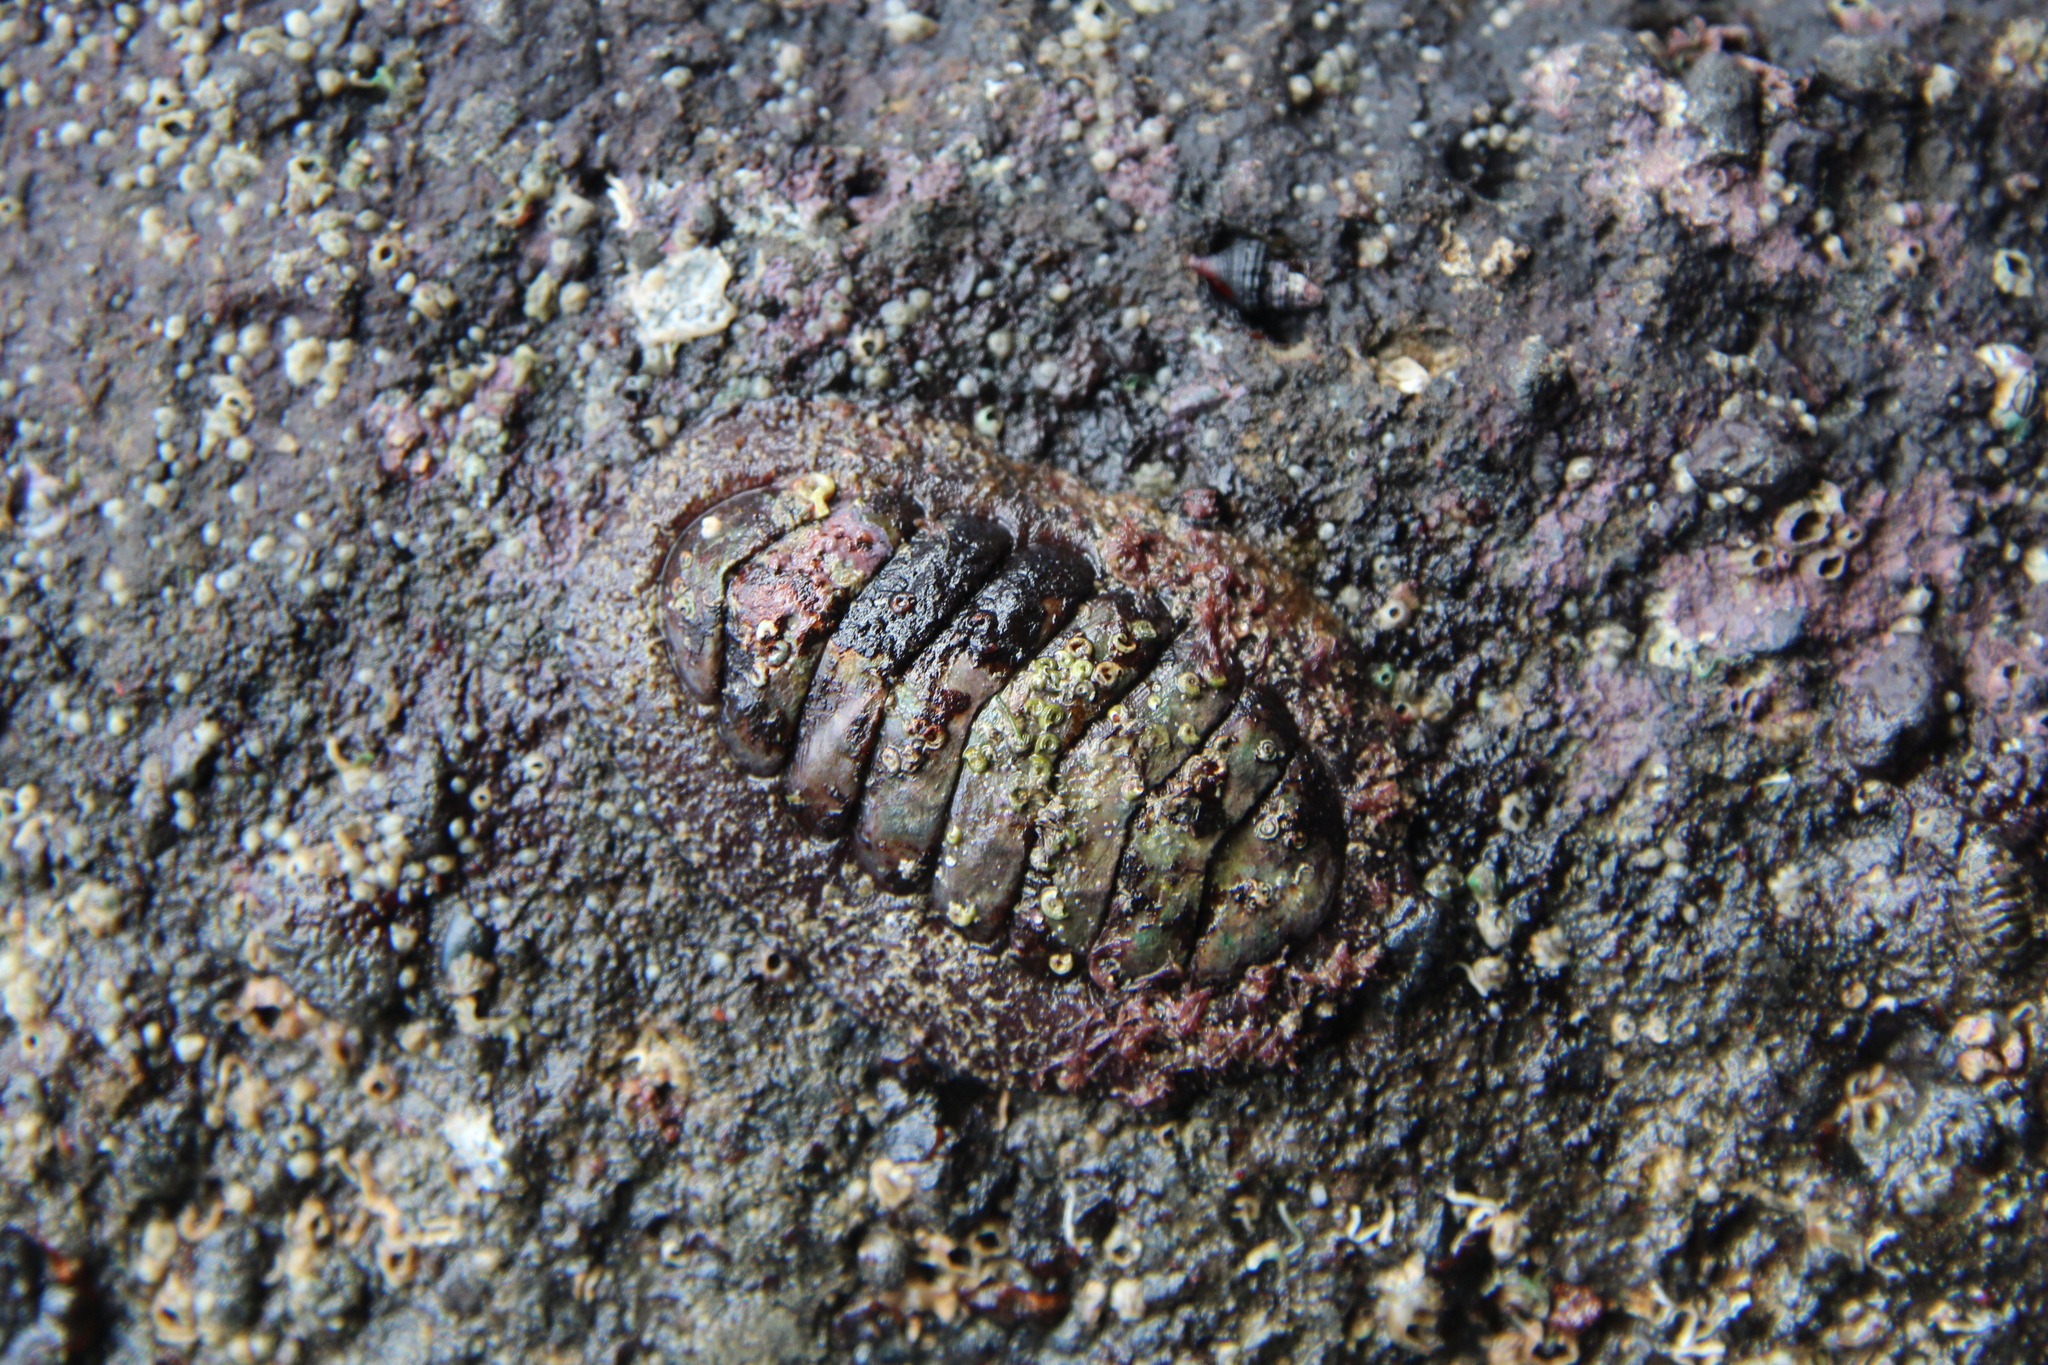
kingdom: Animalia
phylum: Mollusca
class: Polyplacophora
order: Callochitonida
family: Callochitonidae
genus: Eudoxochiton
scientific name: Eudoxochiton nobilis
